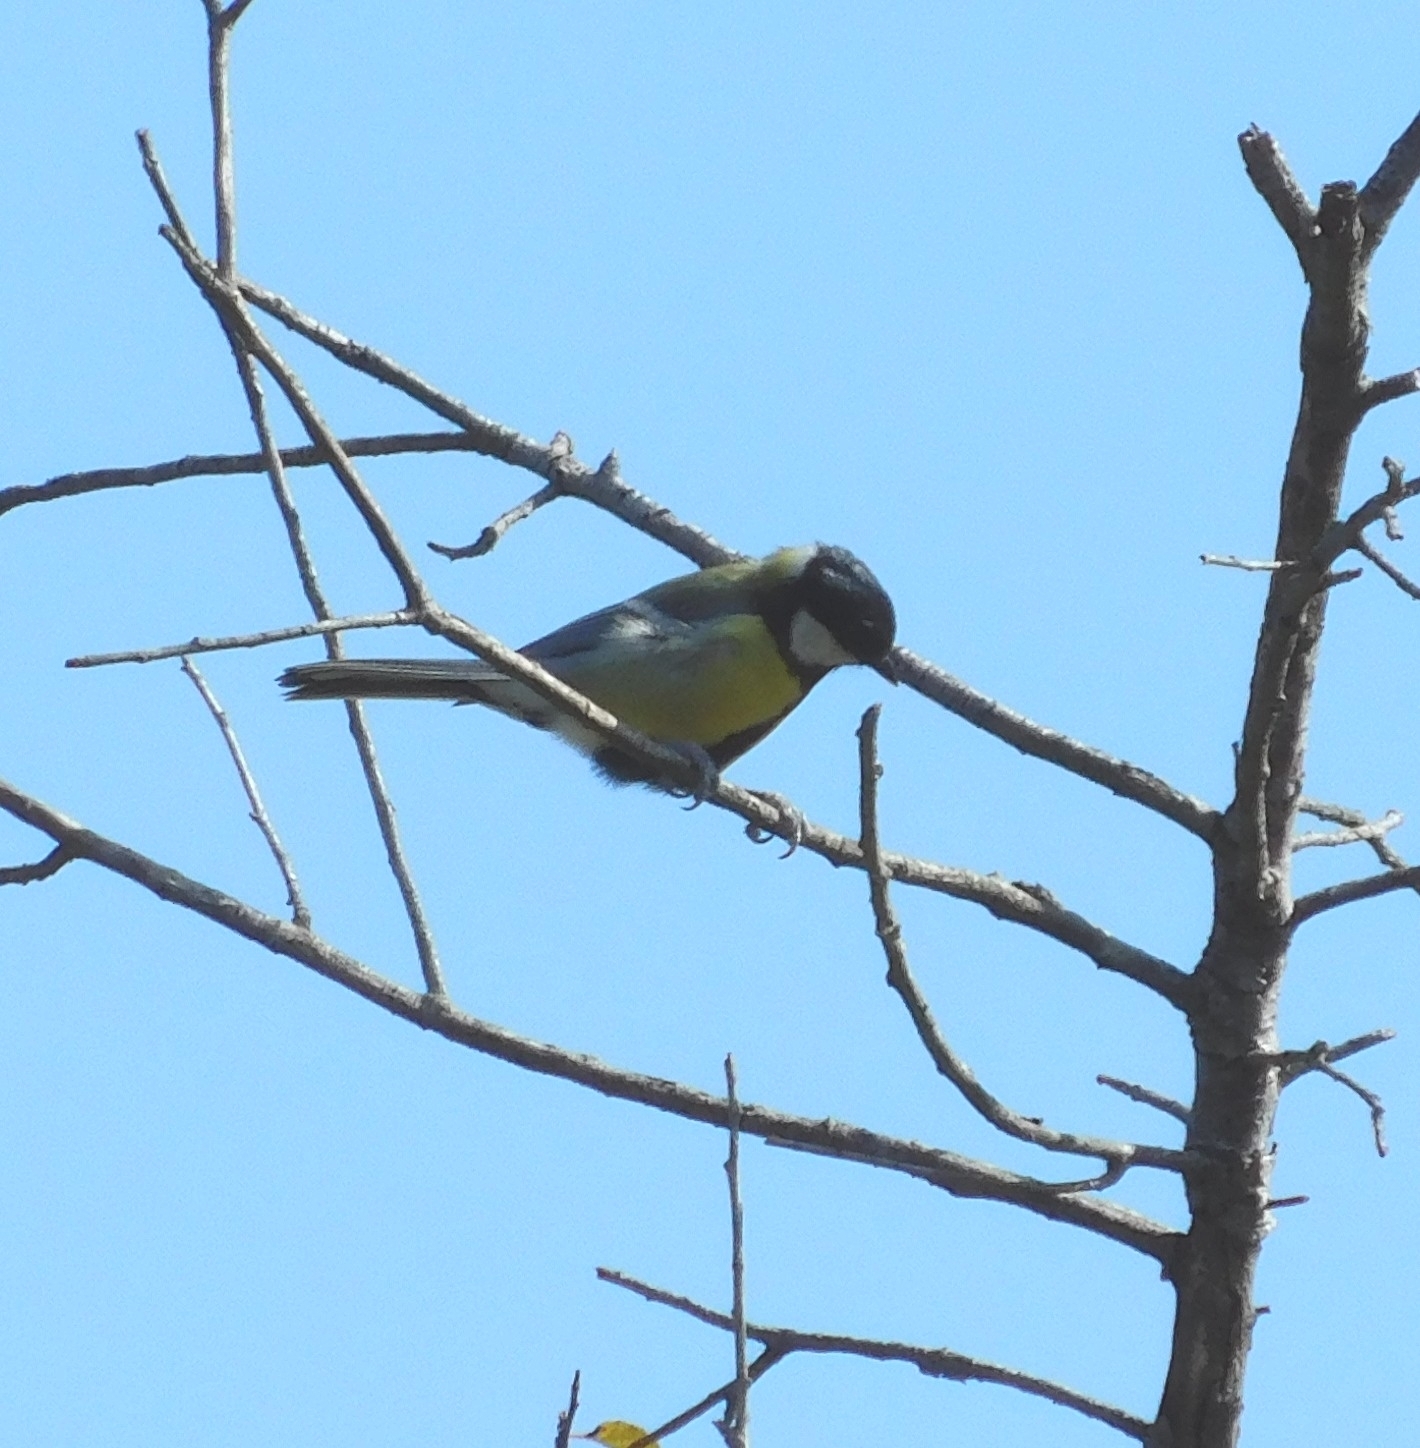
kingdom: Animalia
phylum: Chordata
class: Aves
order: Passeriformes
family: Paridae
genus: Parus
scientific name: Parus major
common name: Great tit
